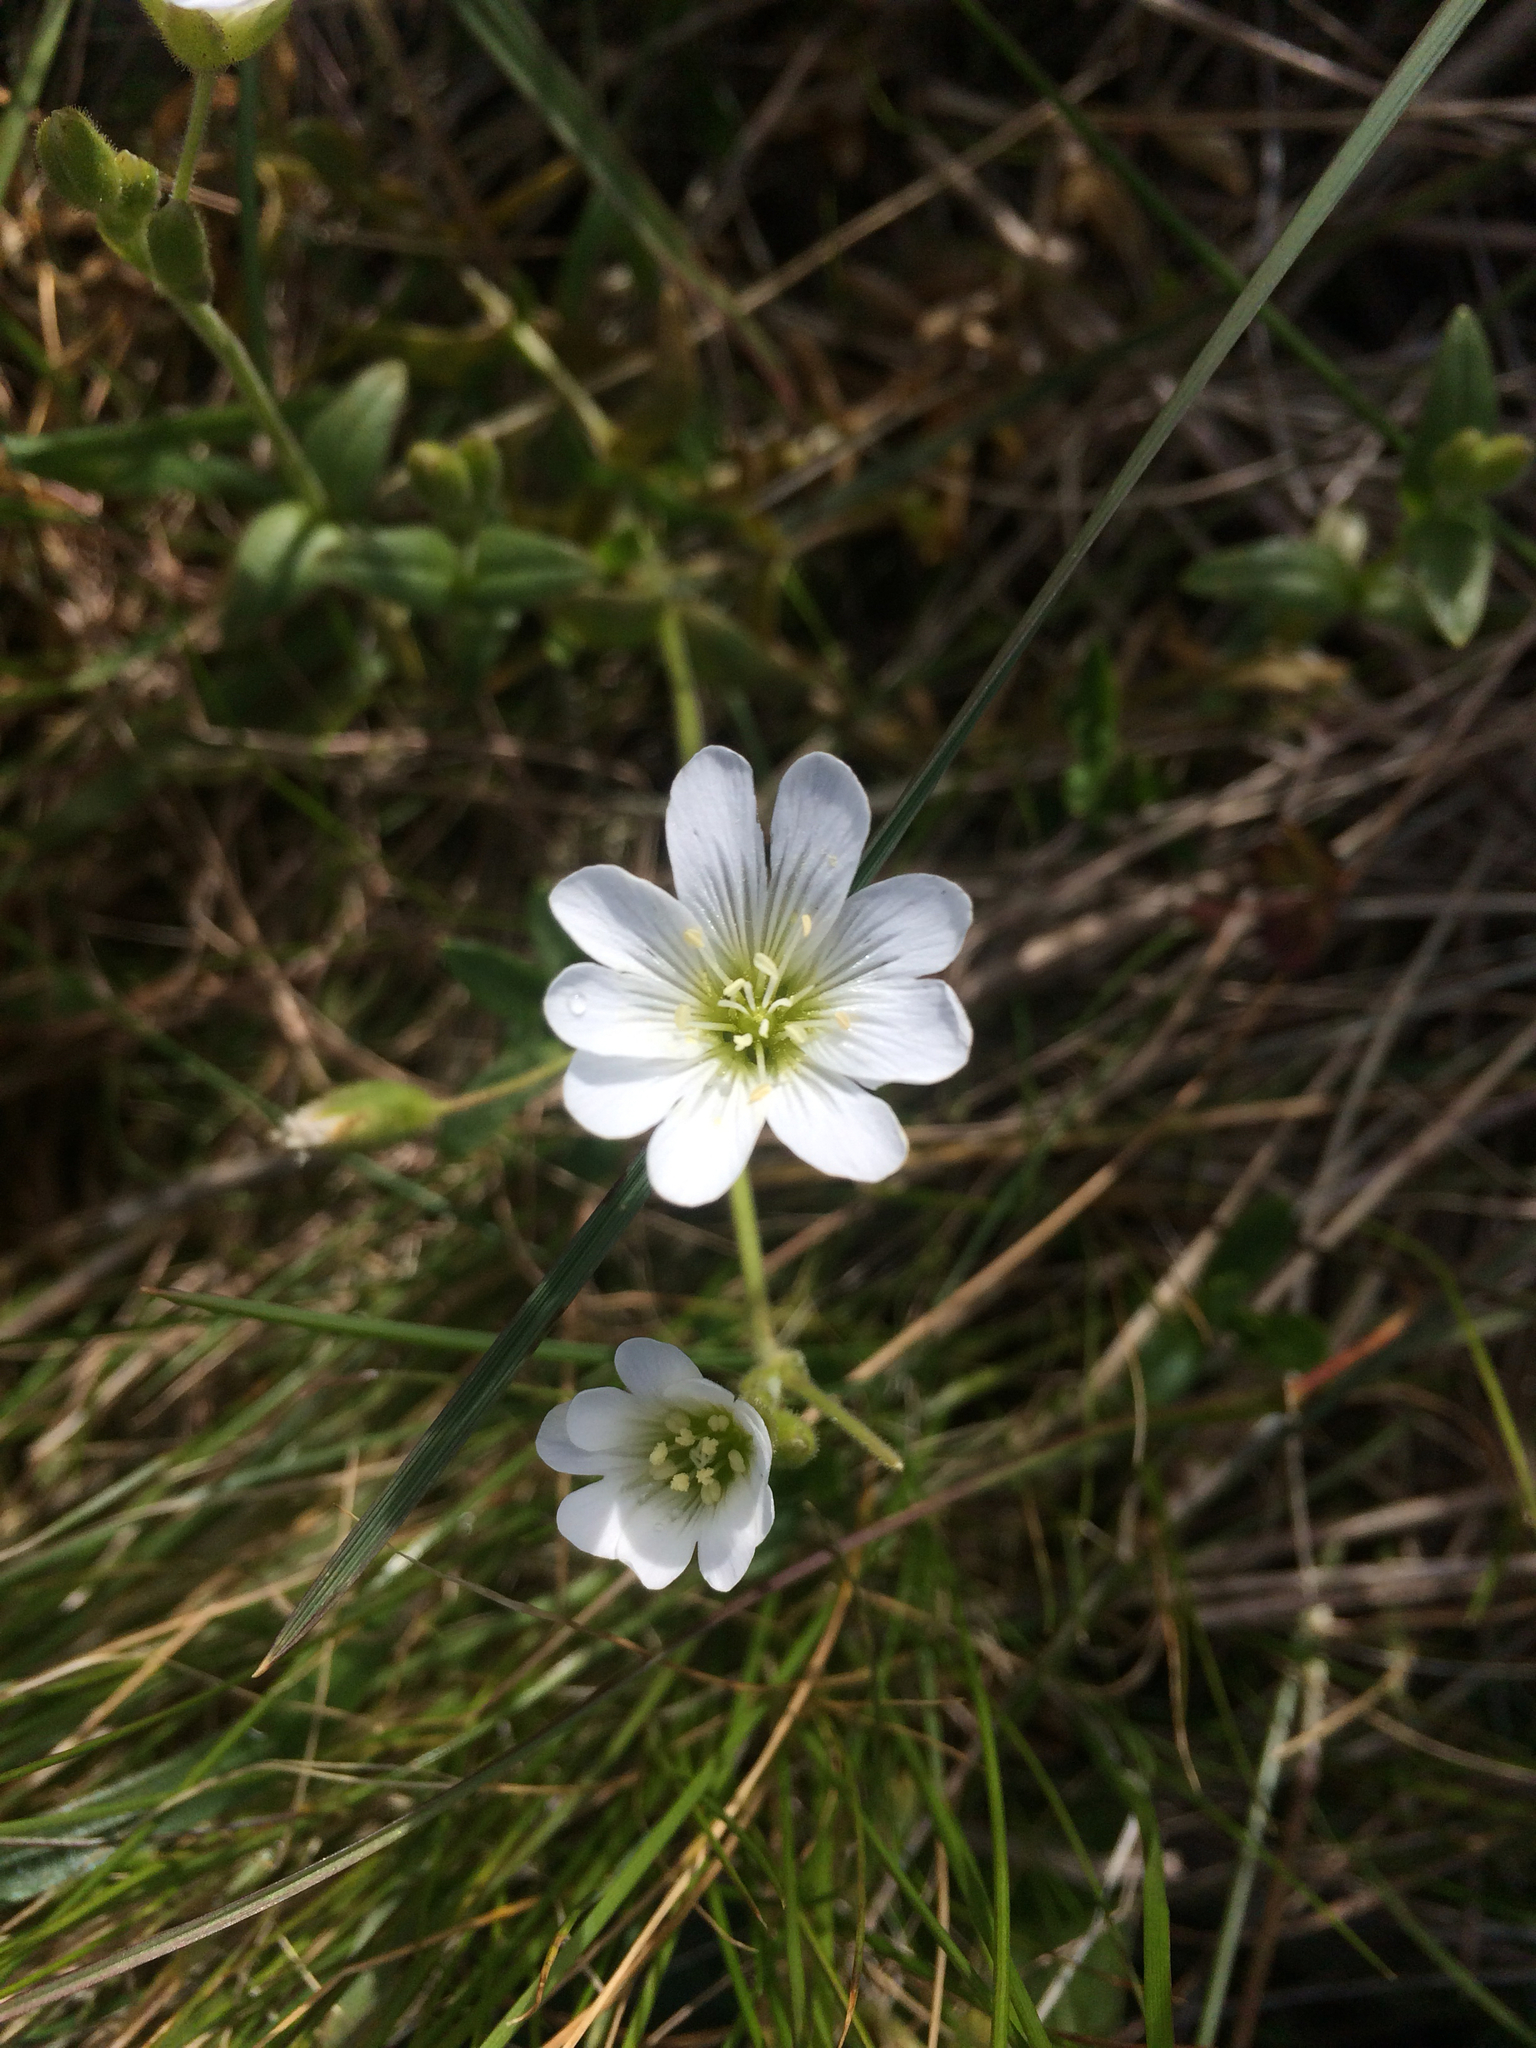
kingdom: Plantae
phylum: Tracheophyta
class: Magnoliopsida
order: Caryophyllales
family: Caryophyllaceae
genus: Cerastium
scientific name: Cerastium arvense
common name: Field mouse-ear
